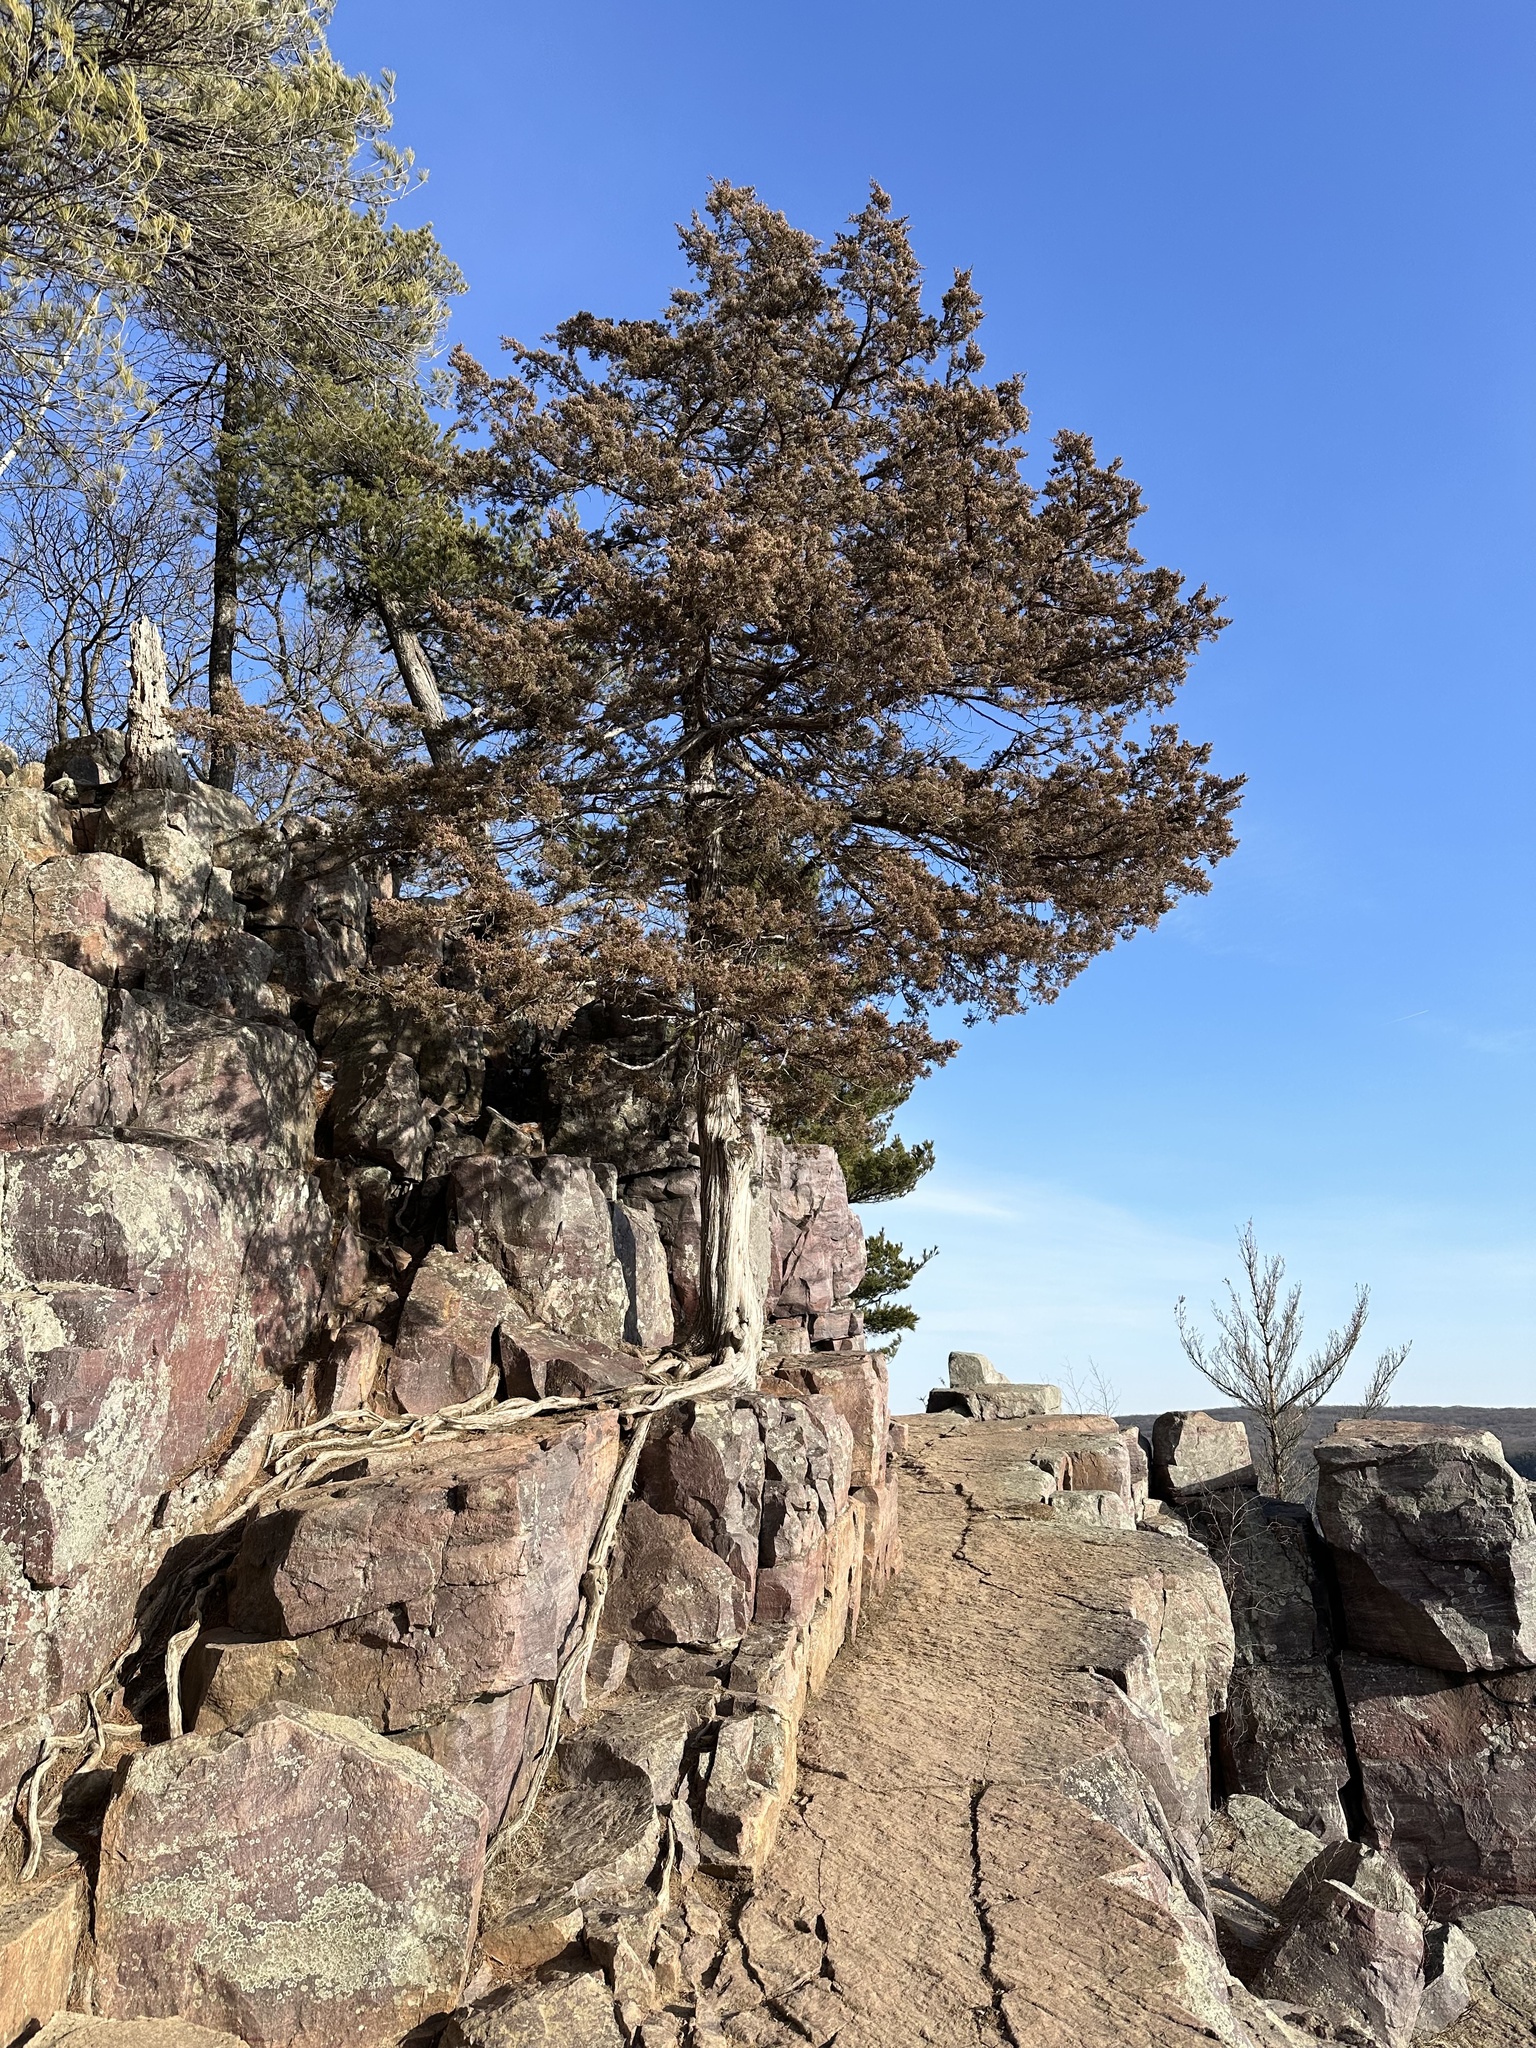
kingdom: Plantae
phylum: Tracheophyta
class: Pinopsida
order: Pinales
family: Cupressaceae
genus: Juniperus
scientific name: Juniperus virginiana
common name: Red juniper
